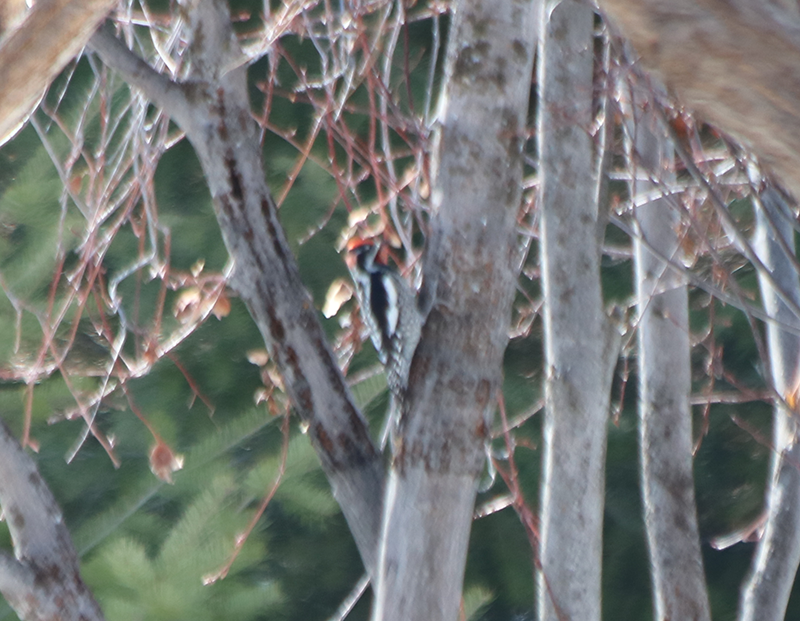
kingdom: Animalia
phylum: Chordata
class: Aves
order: Piciformes
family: Picidae
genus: Sphyrapicus
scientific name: Sphyrapicus nuchalis
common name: Red-naped sapsucker
